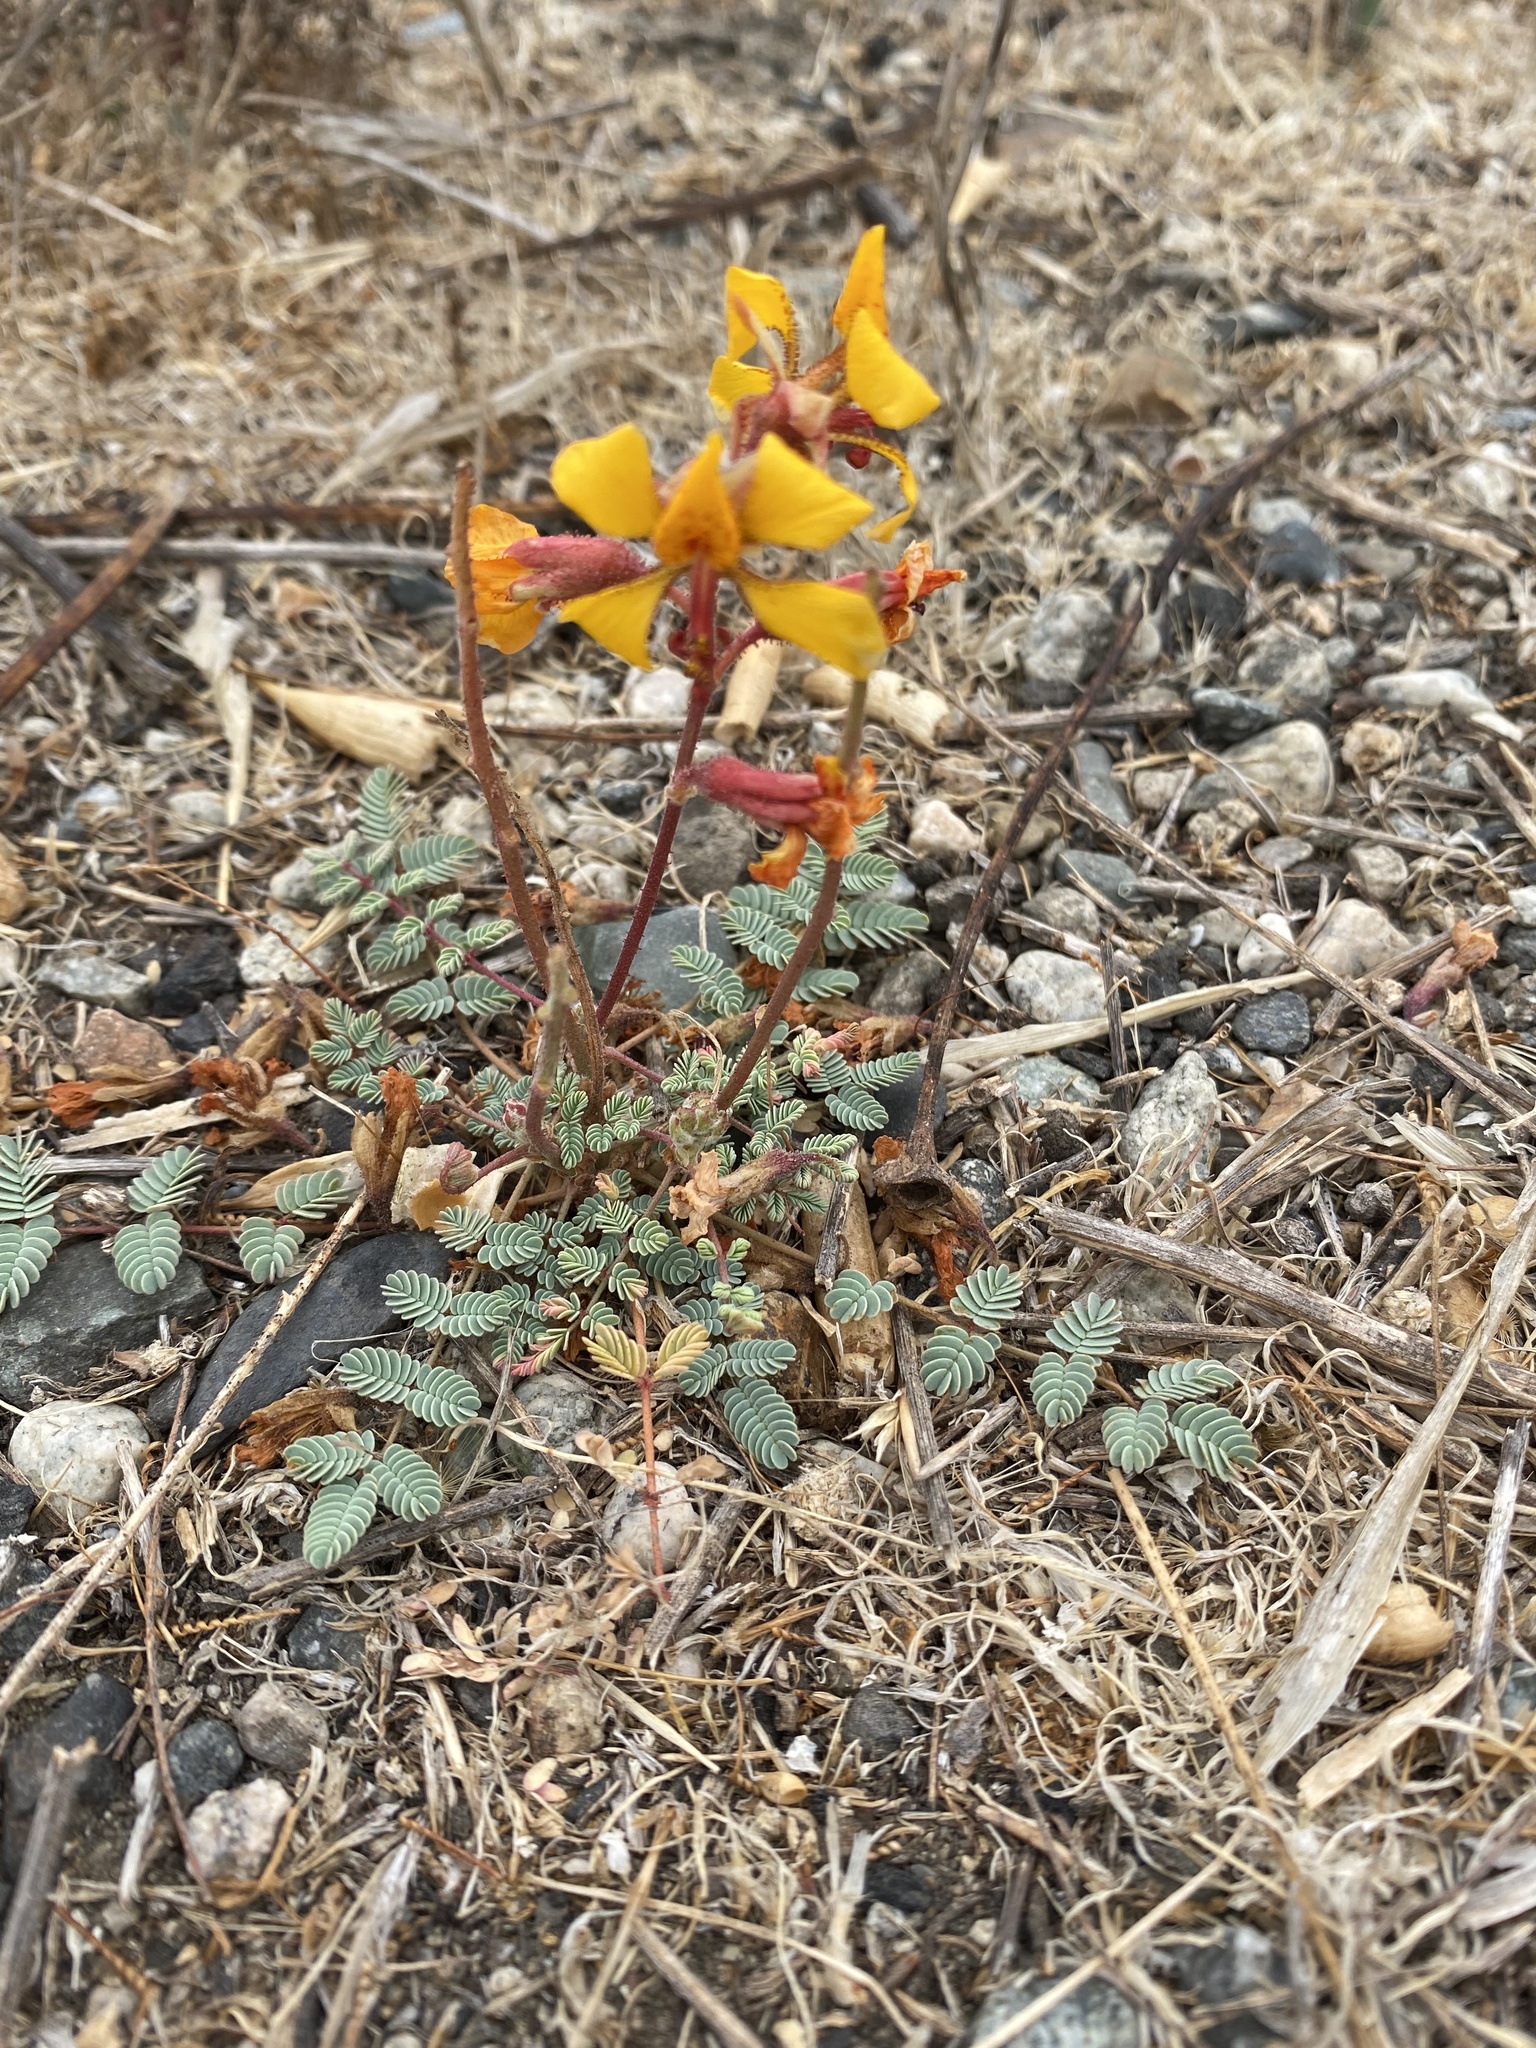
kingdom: Plantae
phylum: Tracheophyta
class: Magnoliopsida
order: Fabales
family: Fabaceae
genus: Hoffmannseggia
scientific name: Hoffmannseggia glauca
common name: Pignut
